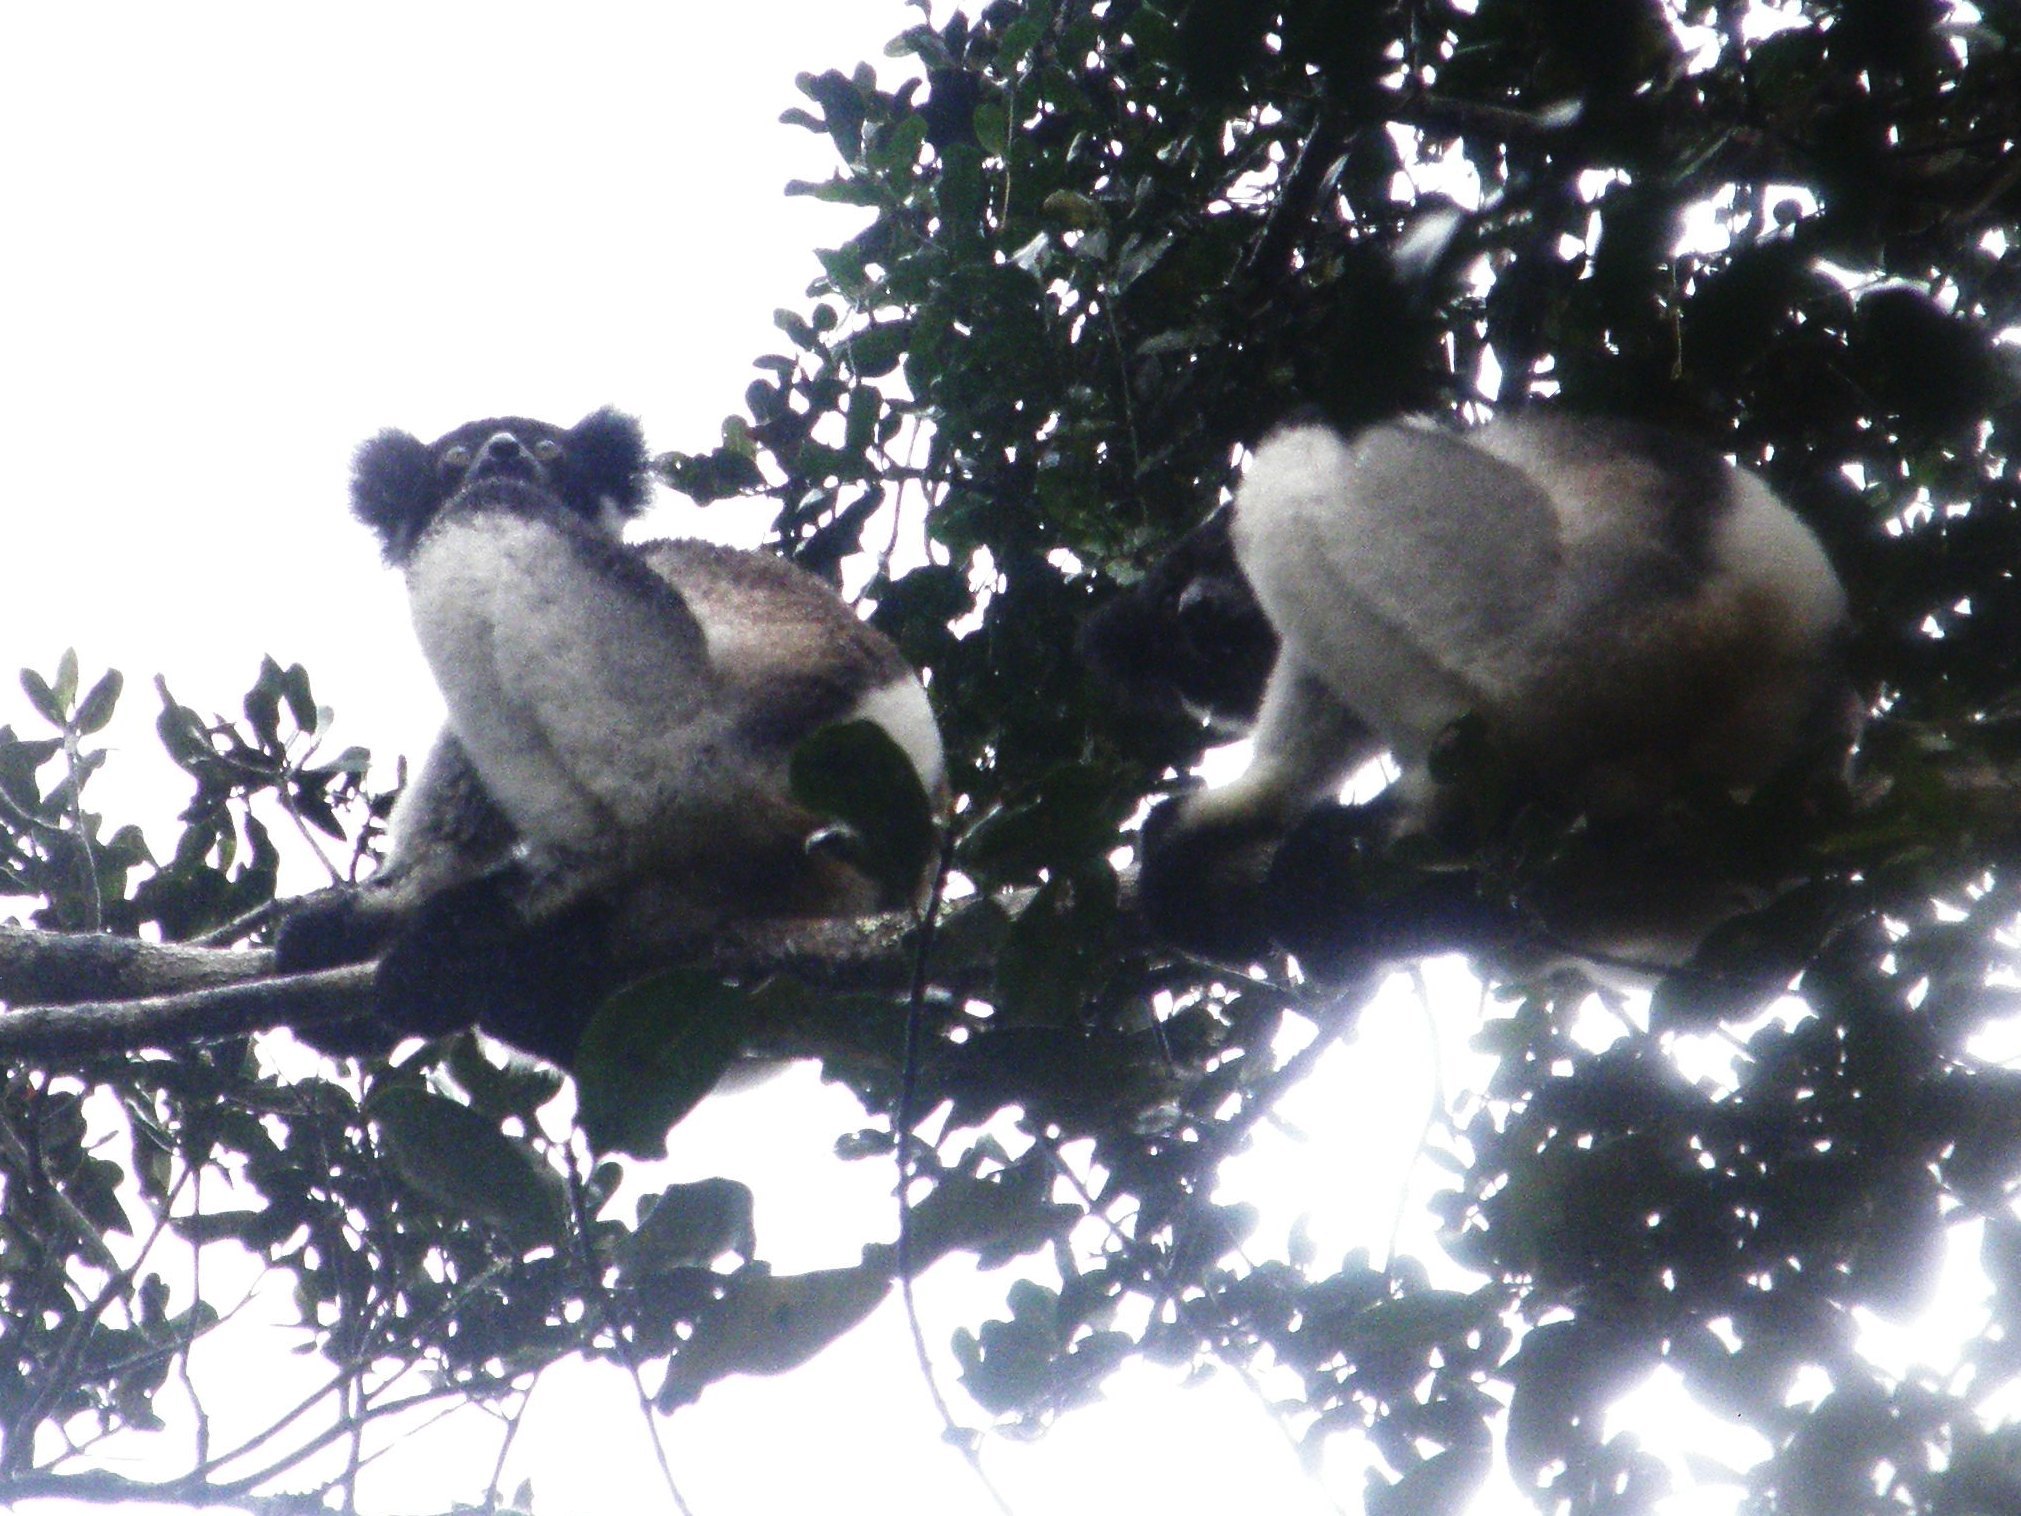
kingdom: Animalia
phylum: Chordata
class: Mammalia
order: Primates
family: Indriidae
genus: Indri
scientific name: Indri indri
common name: Indri
